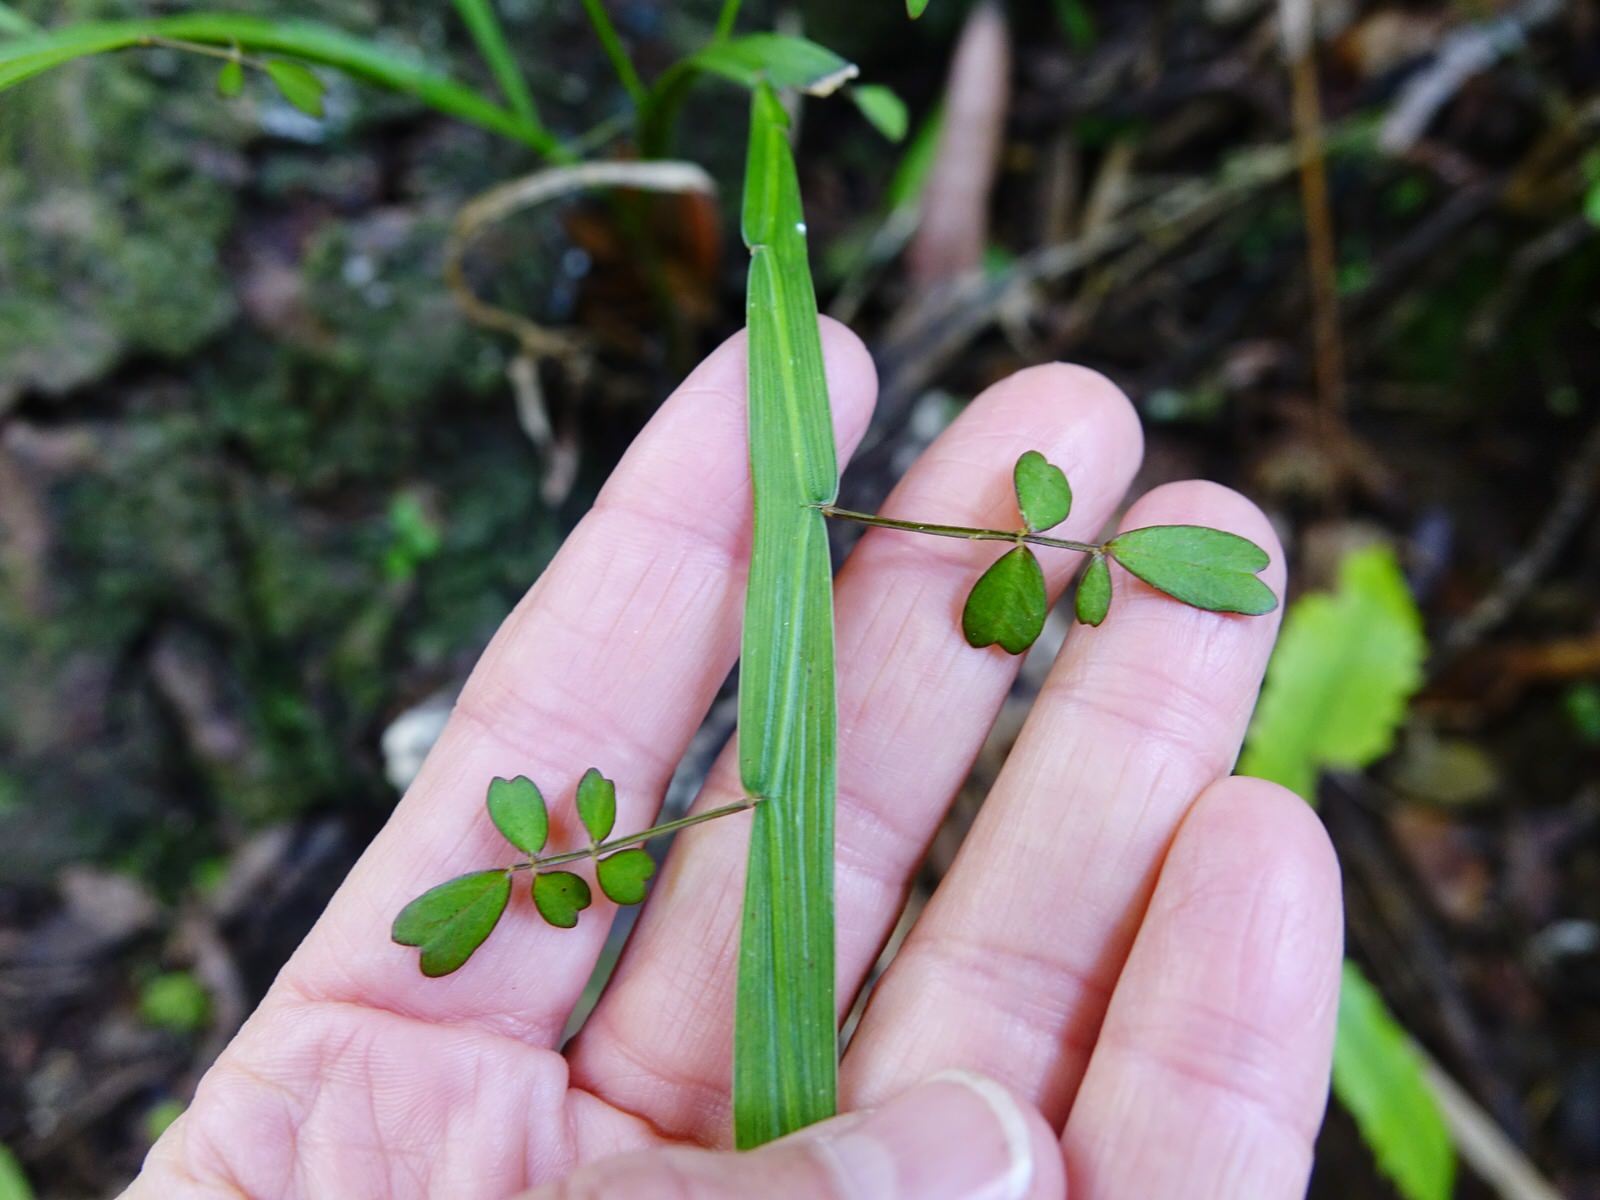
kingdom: Plantae
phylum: Tracheophyta
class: Magnoliopsida
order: Fabales
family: Fabaceae
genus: Carmichaelia
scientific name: Carmichaelia australis
